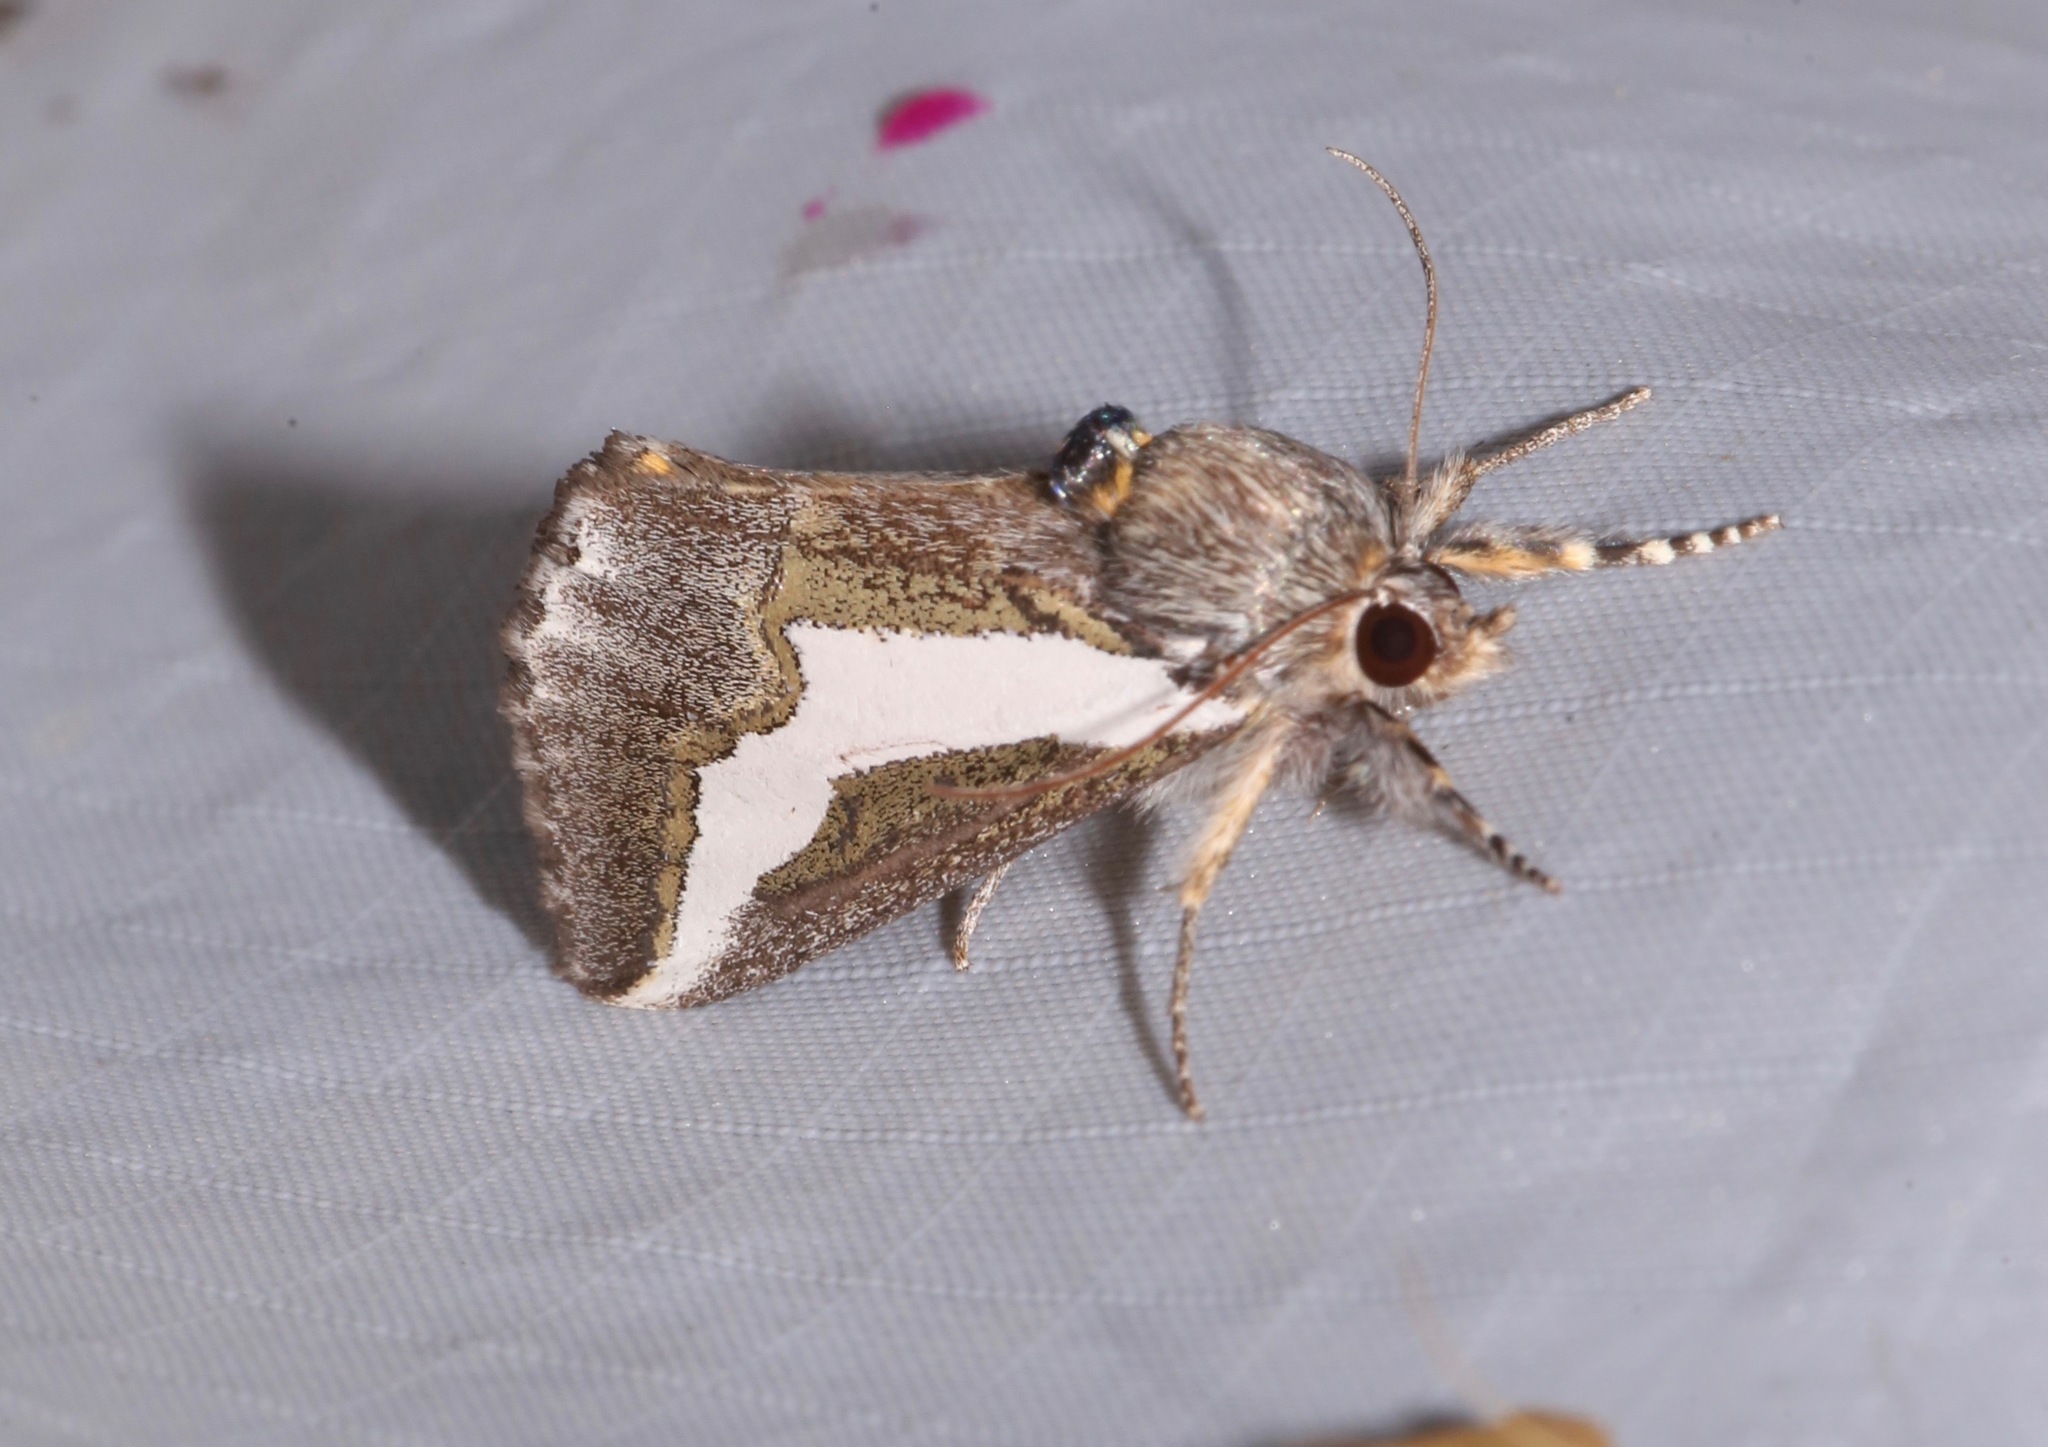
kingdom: Animalia
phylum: Arthropoda
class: Insecta
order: Lepidoptera
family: Noctuidae
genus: Euscirrhopterus
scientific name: Euscirrhopterus cosyra
